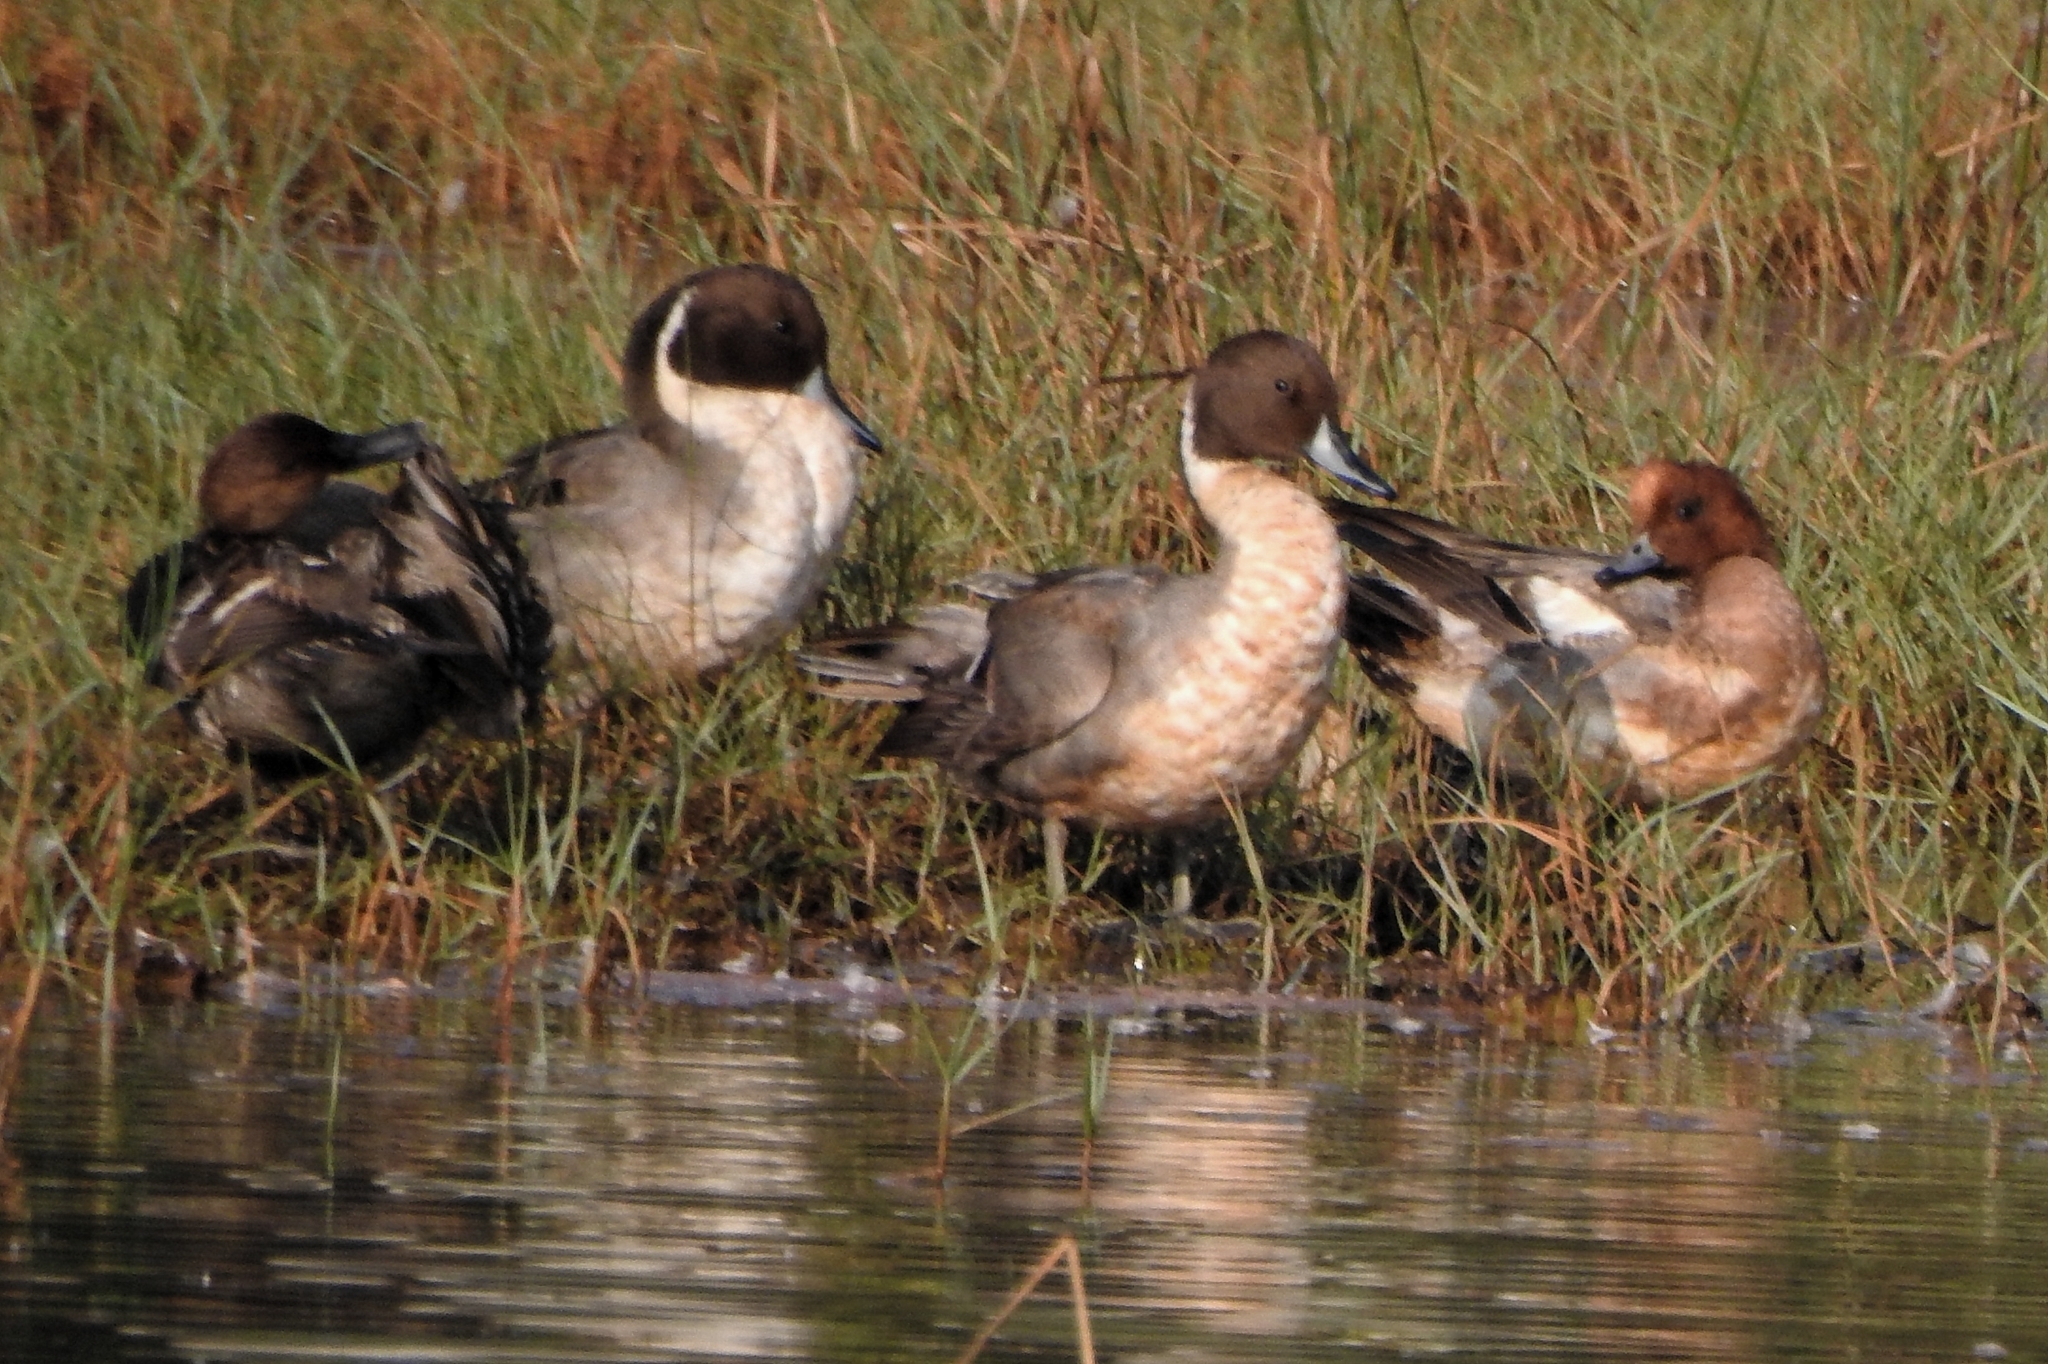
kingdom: Animalia
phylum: Chordata
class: Aves
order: Anseriformes
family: Anatidae
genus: Anas
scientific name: Anas acuta
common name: Northern pintail
